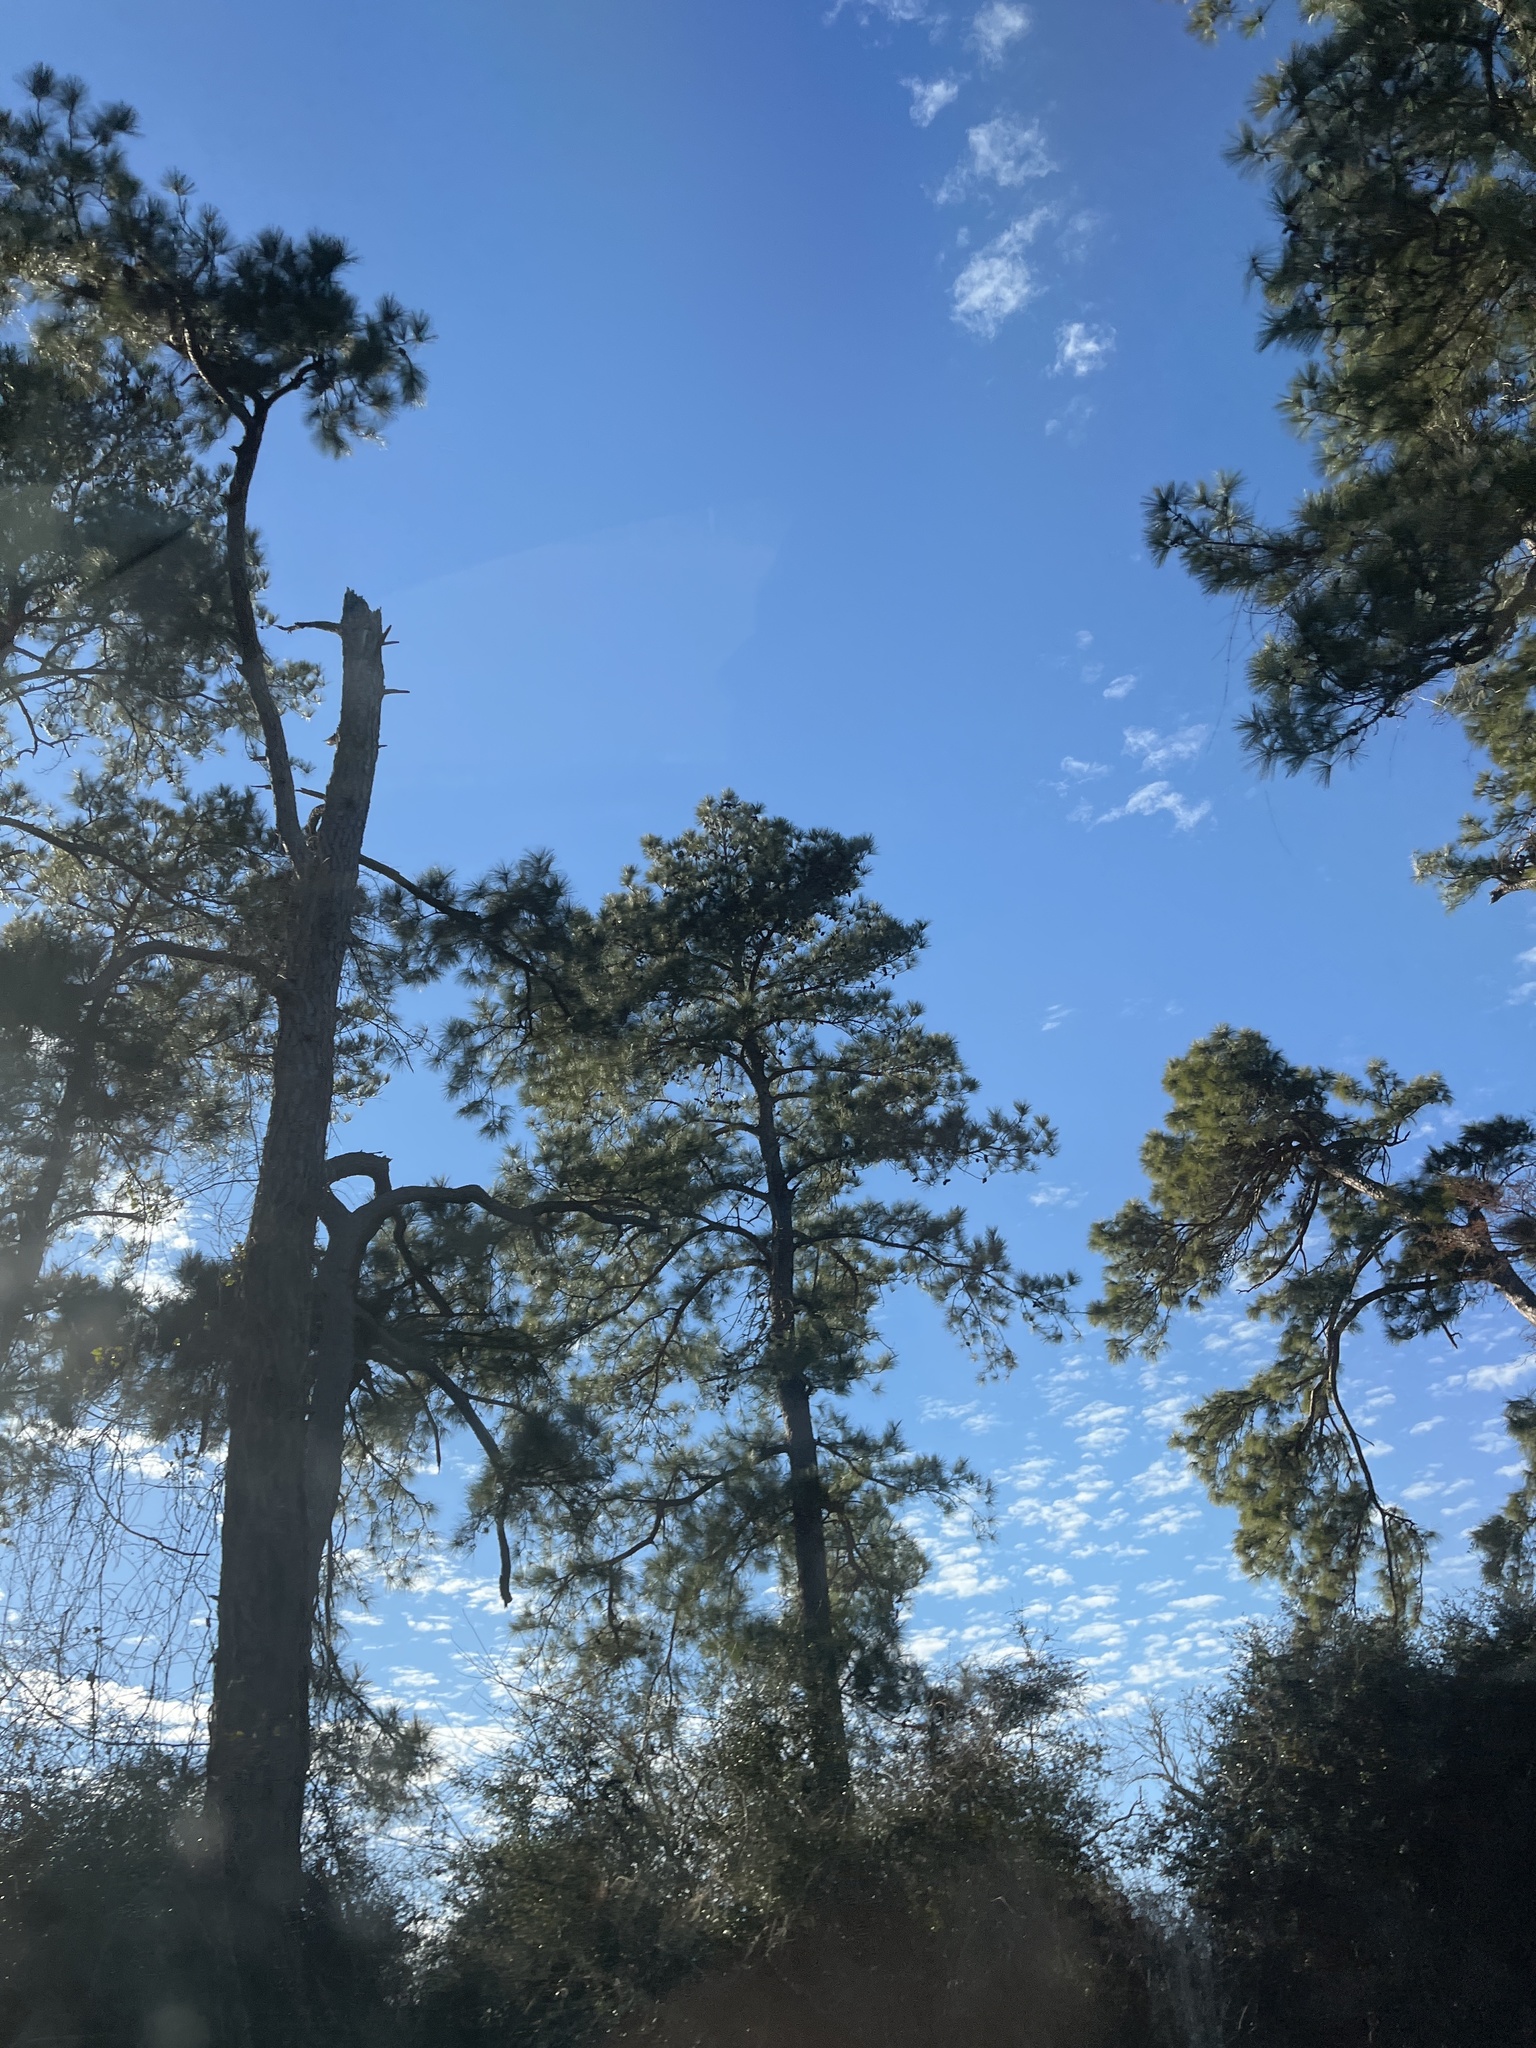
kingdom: Plantae
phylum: Tracheophyta
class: Pinopsida
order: Pinales
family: Pinaceae
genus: Pinus
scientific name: Pinus echinata
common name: Shortleaf pine
